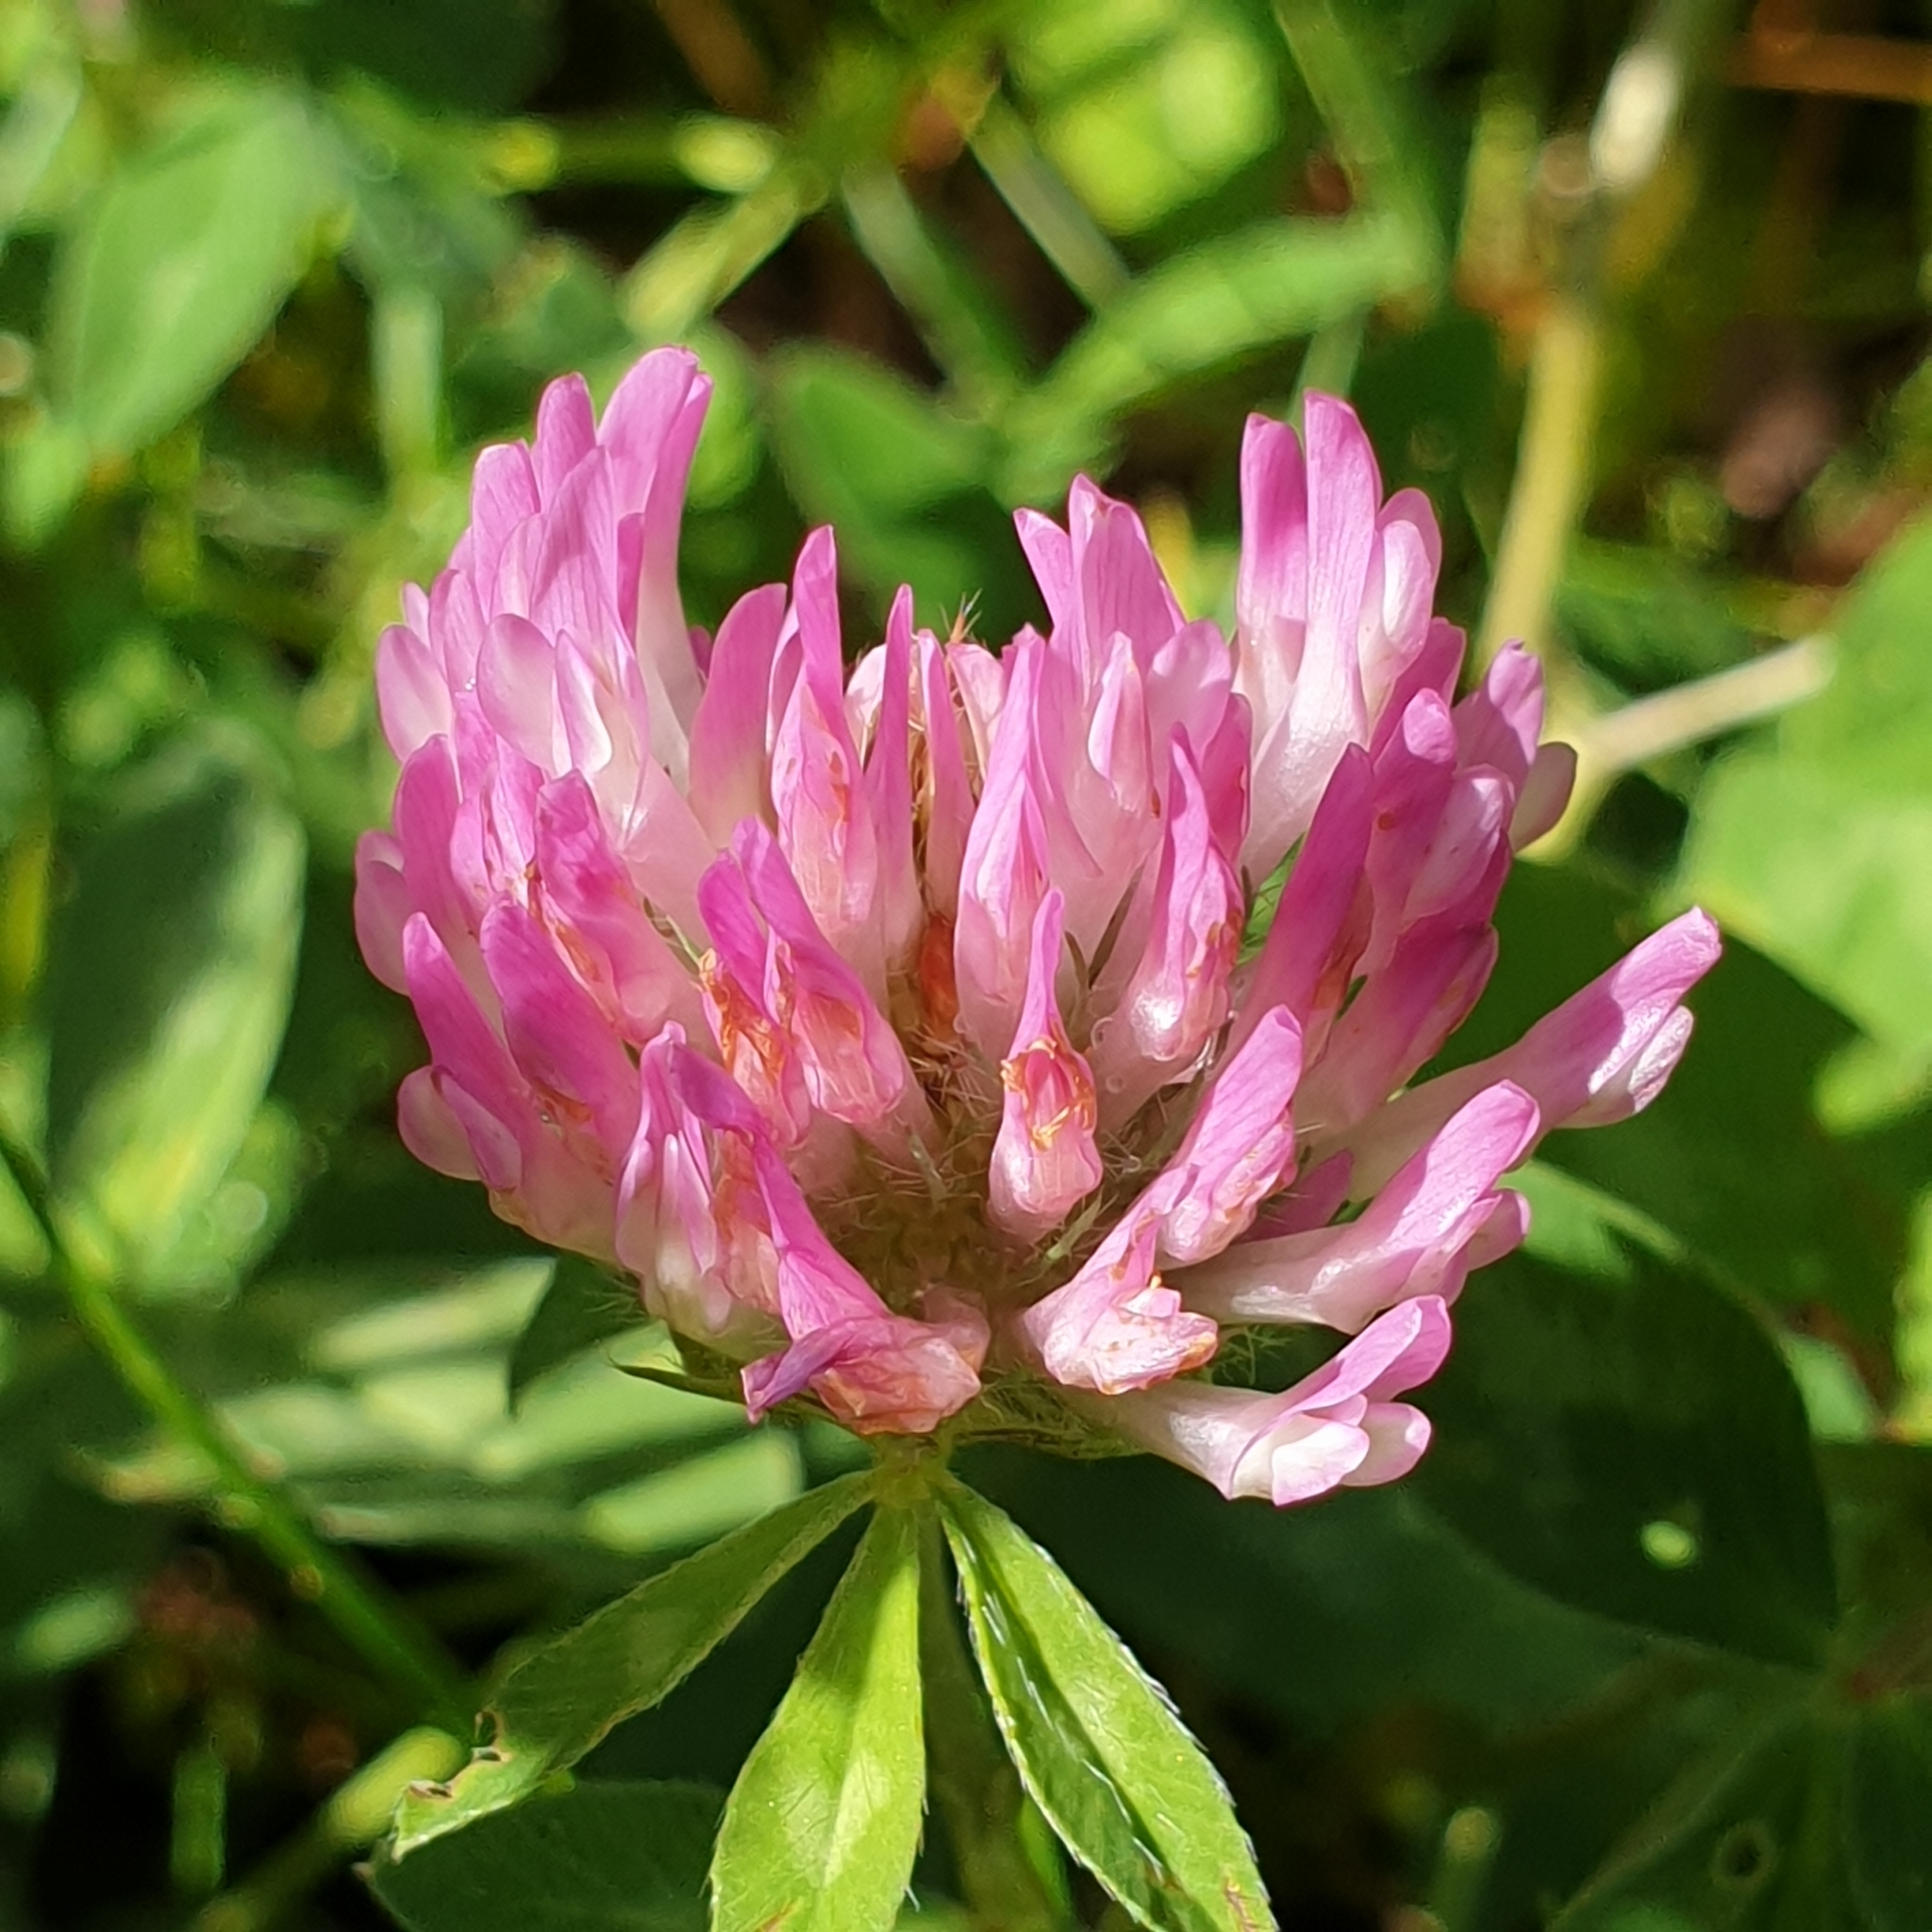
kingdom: Plantae
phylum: Tracheophyta
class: Magnoliopsida
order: Fabales
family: Fabaceae
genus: Trifolium
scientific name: Trifolium pratense
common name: Red clover
